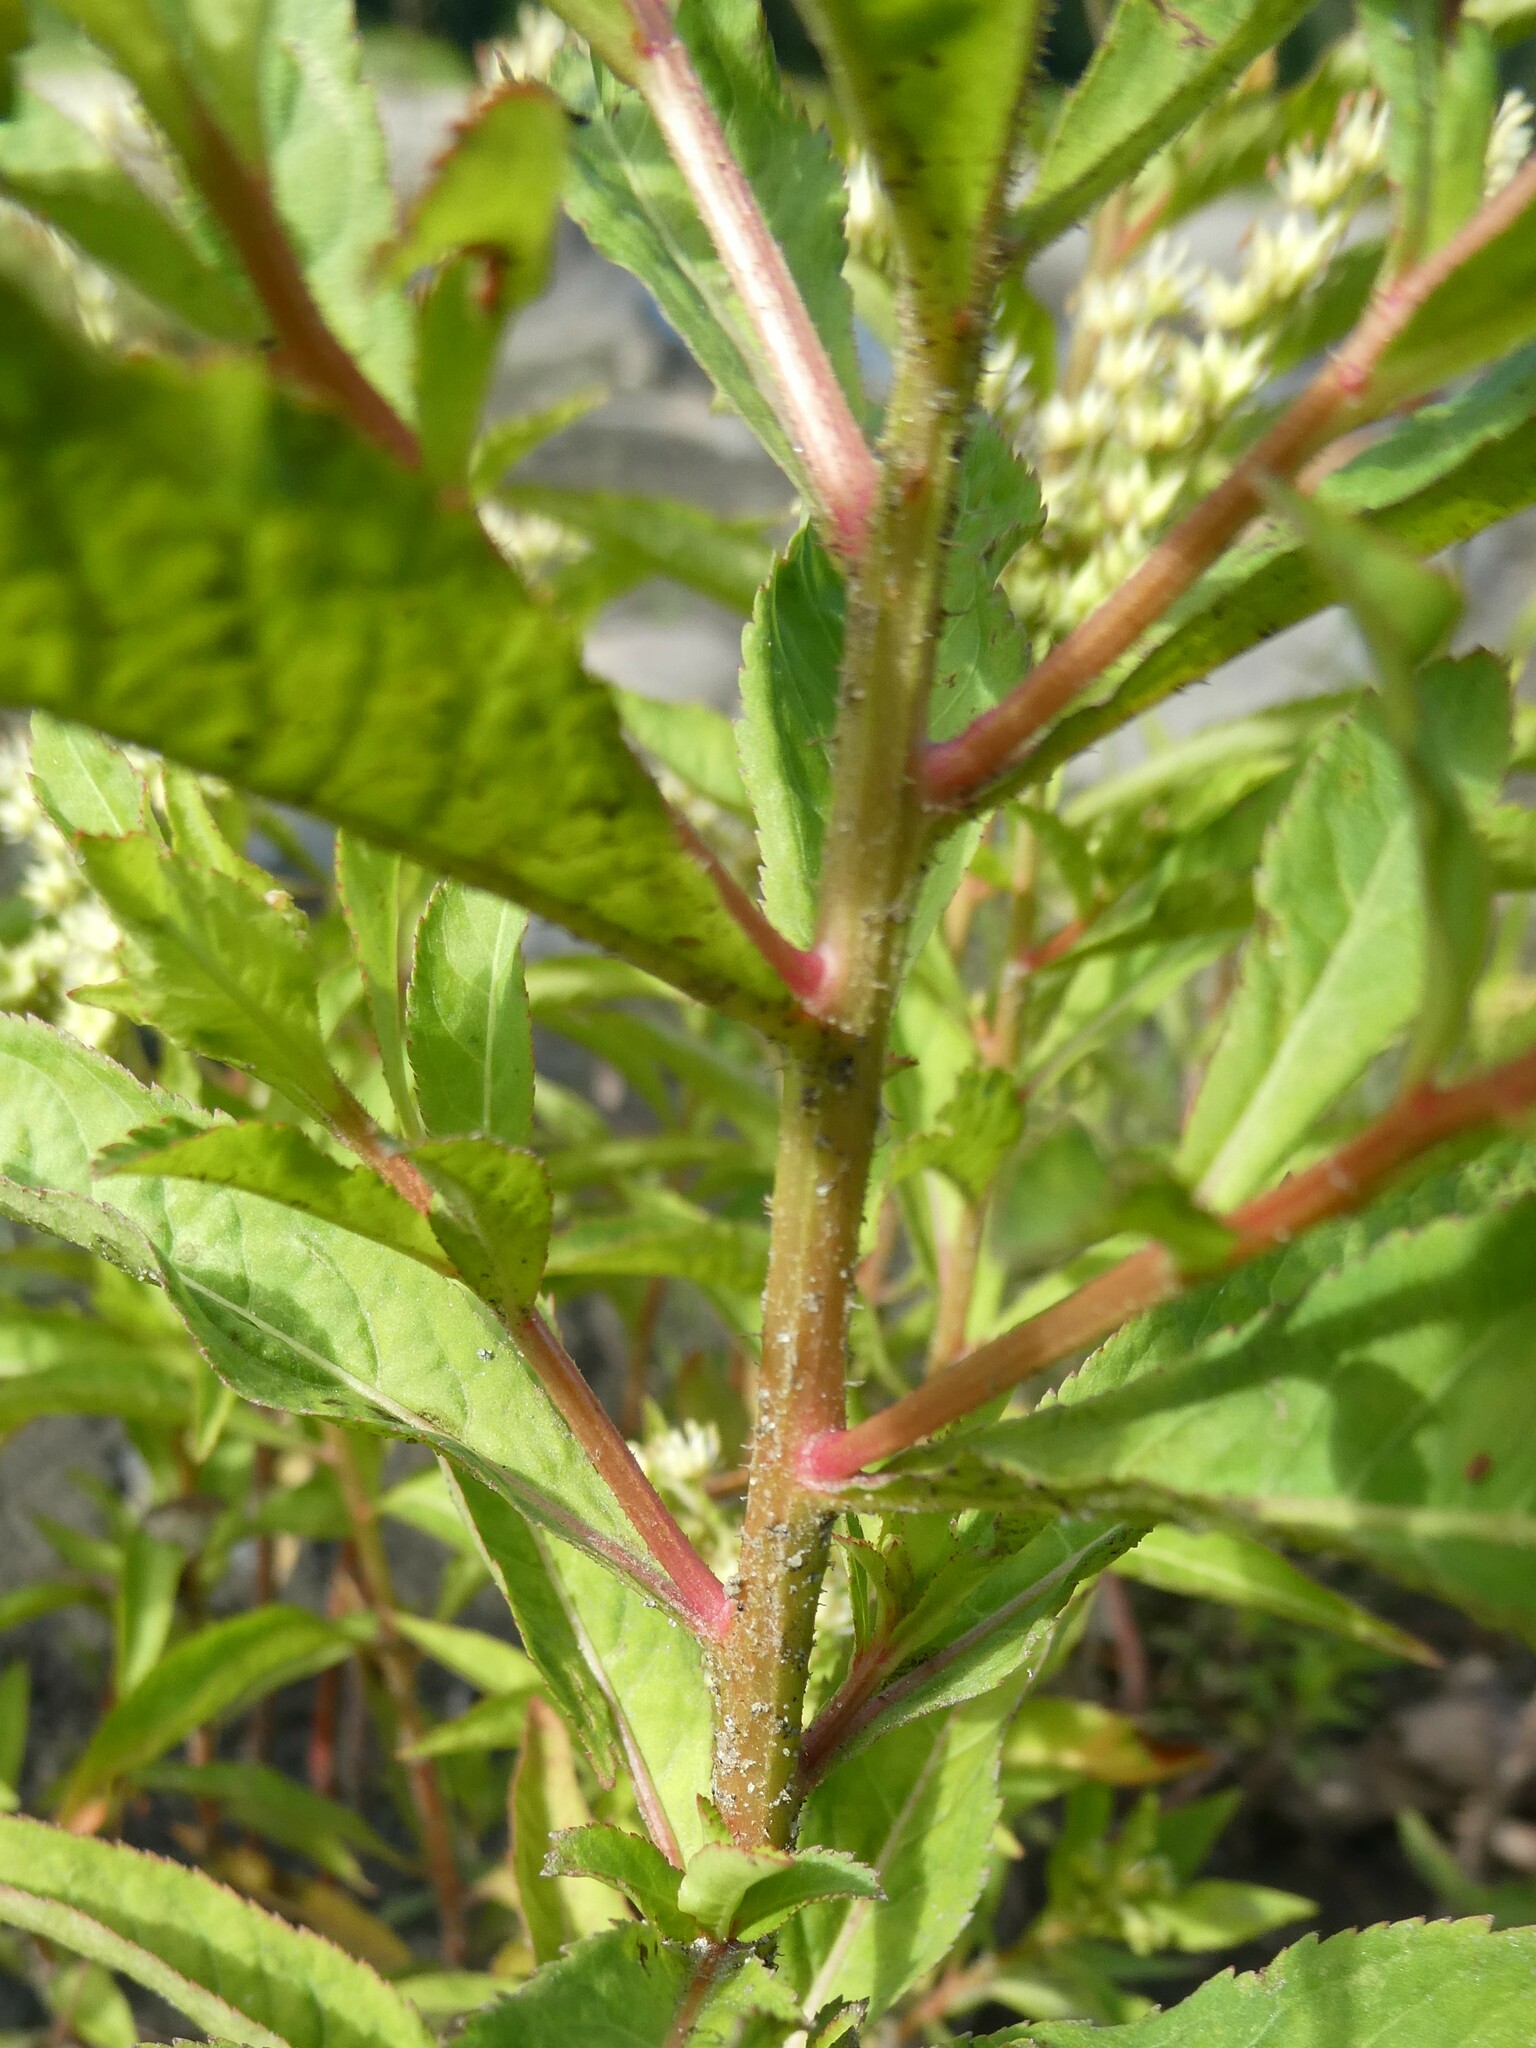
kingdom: Plantae
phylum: Tracheophyta
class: Magnoliopsida
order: Saxifragales
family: Penthoraceae
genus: Penthorum
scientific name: Penthorum sedoides
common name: Ditch stonecrop
